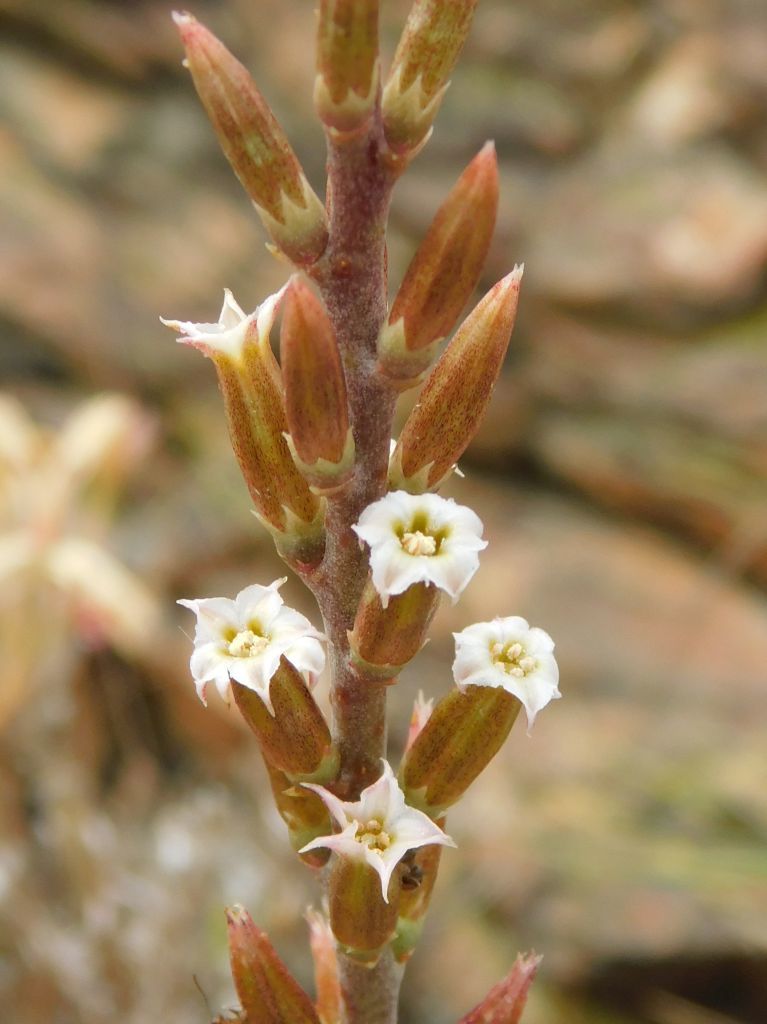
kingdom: Plantae
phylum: Tracheophyta
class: Magnoliopsida
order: Saxifragales
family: Crassulaceae
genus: Adromischus
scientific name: Adromischus hemisphaericus
